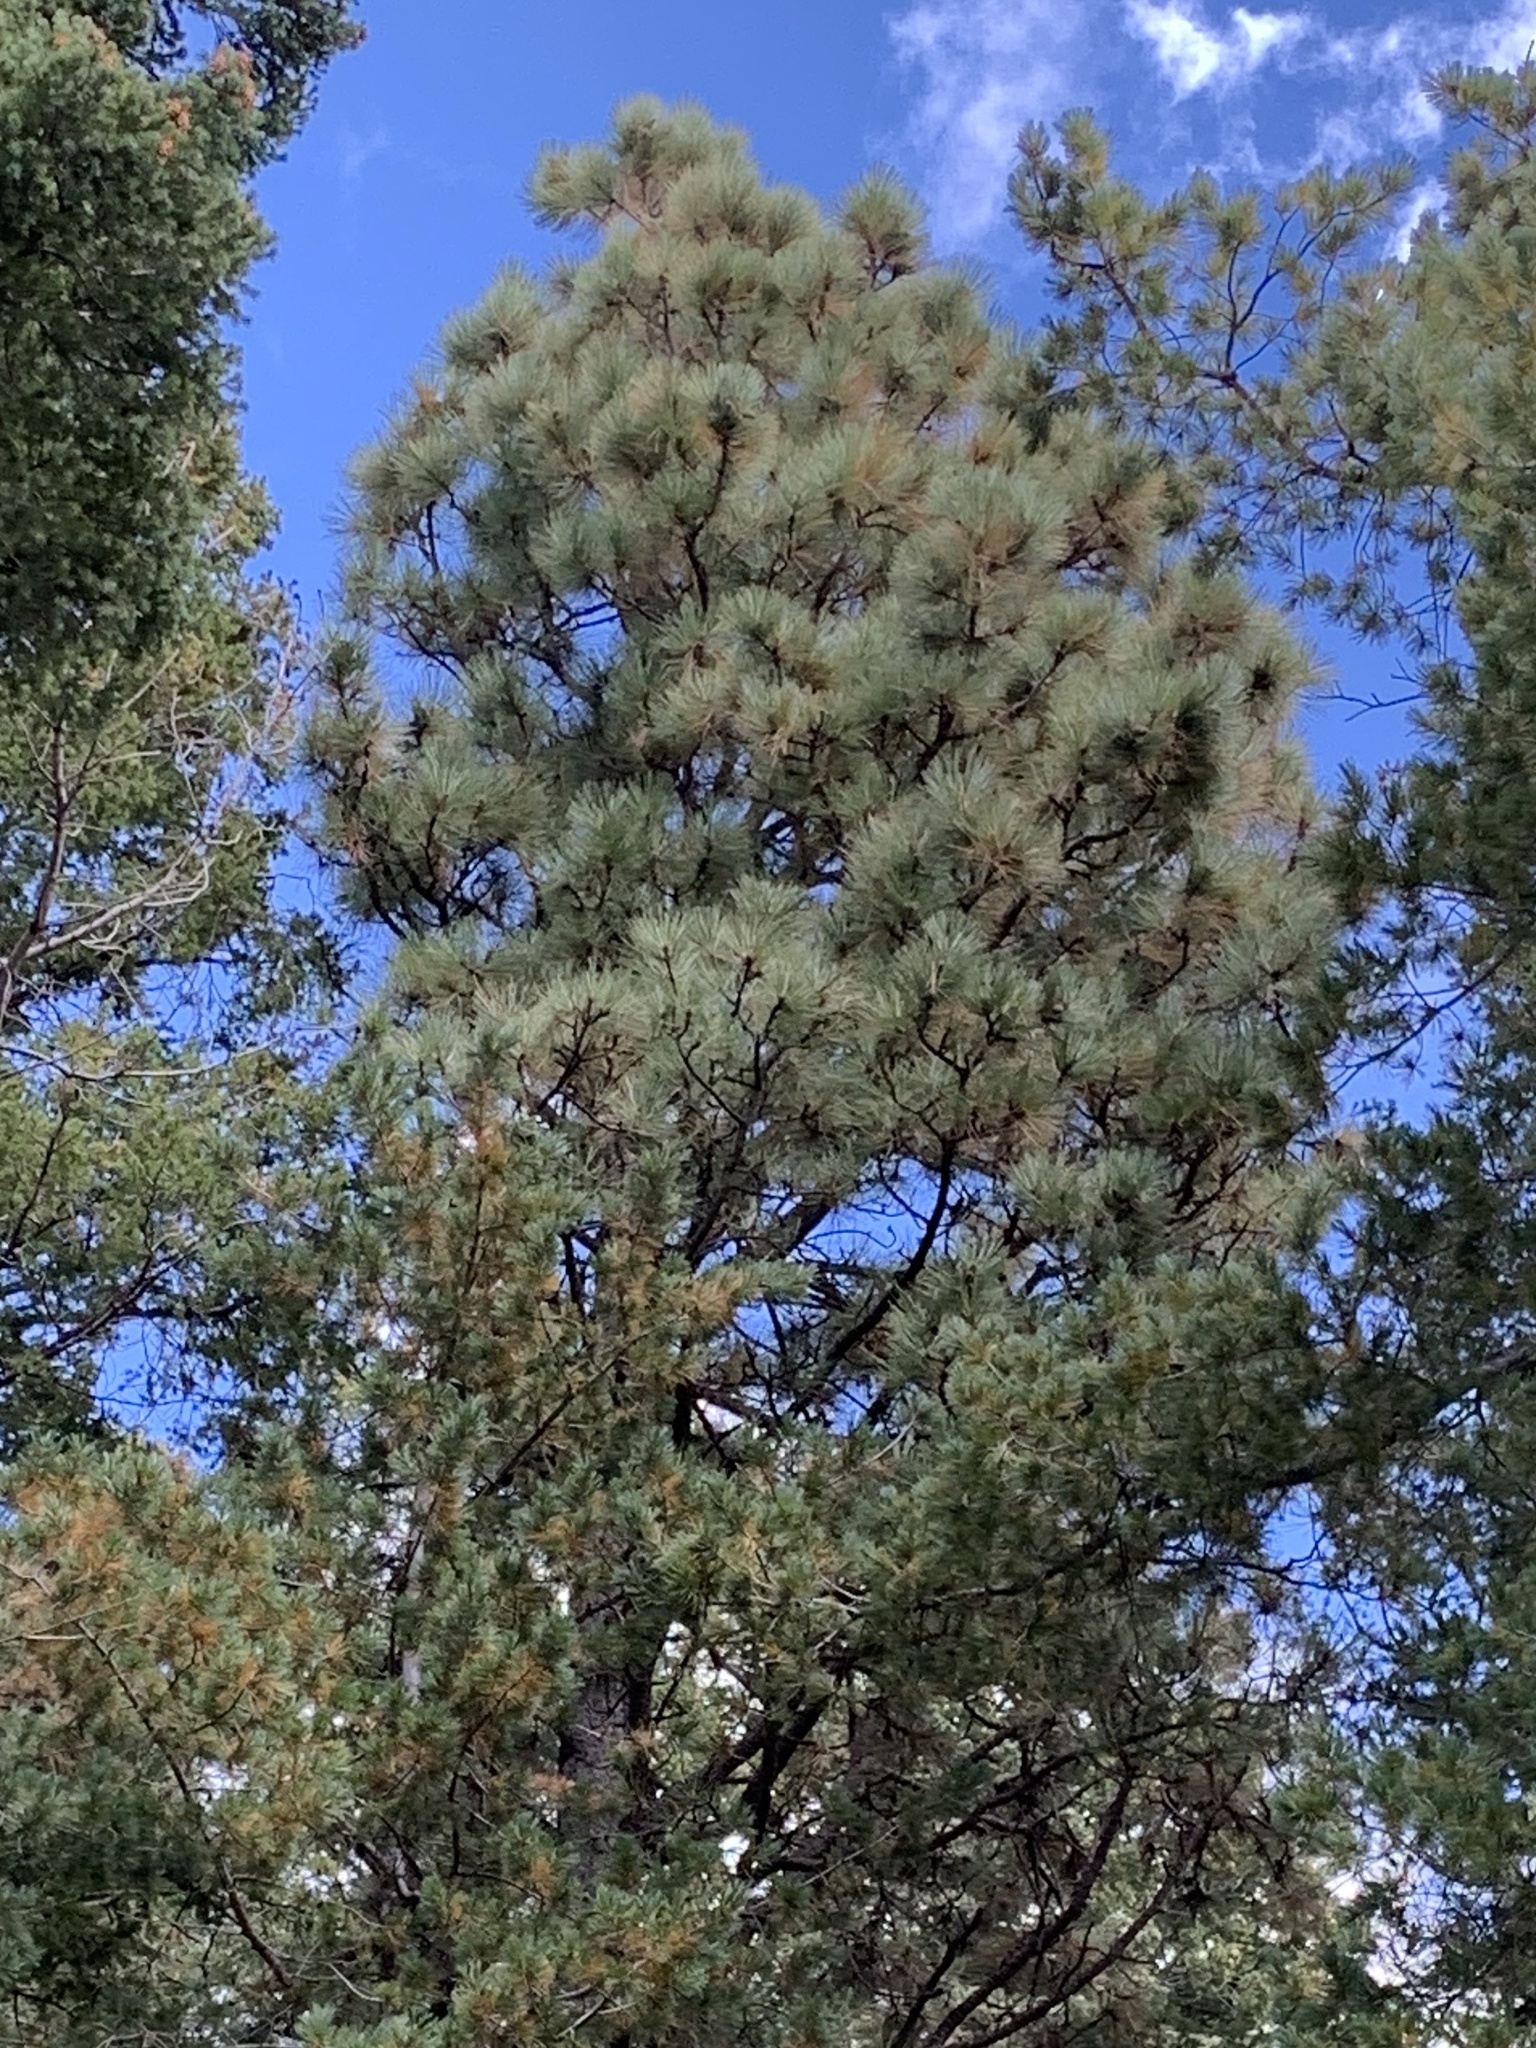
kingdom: Plantae
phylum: Tracheophyta
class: Pinopsida
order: Pinales
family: Pinaceae
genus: Pinus
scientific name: Pinus ponderosa
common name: Western yellow-pine
